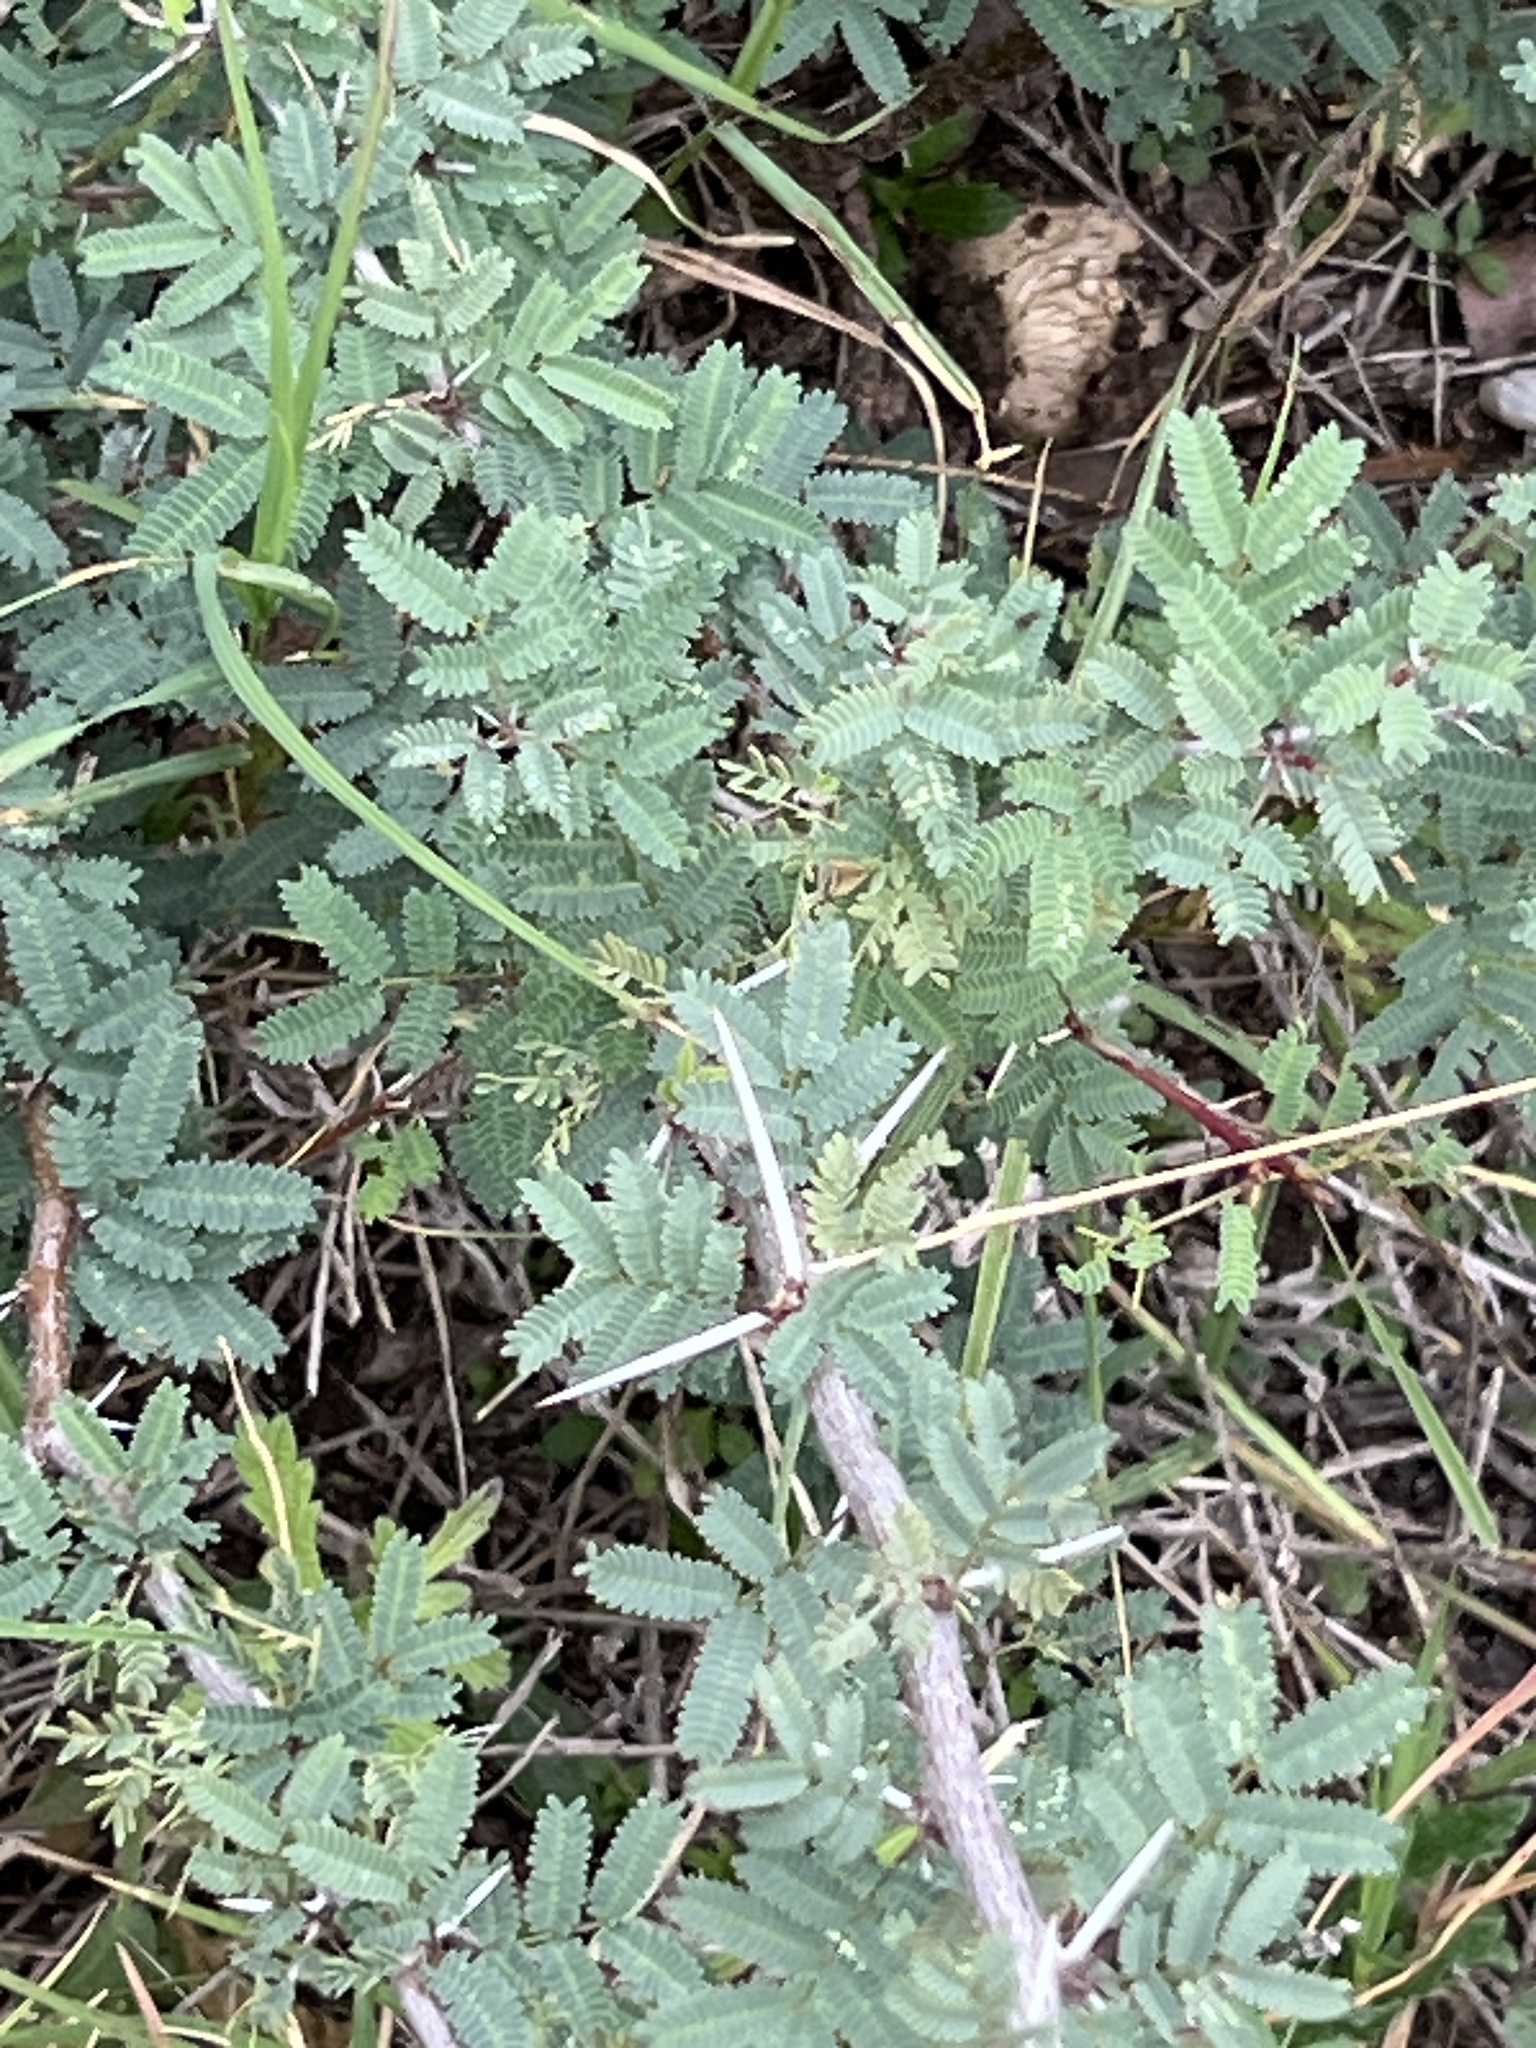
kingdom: Plantae
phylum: Tracheophyta
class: Magnoliopsida
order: Fabales
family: Fabaceae
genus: Vachellia
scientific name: Vachellia farnesiana
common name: Sweet acacia
